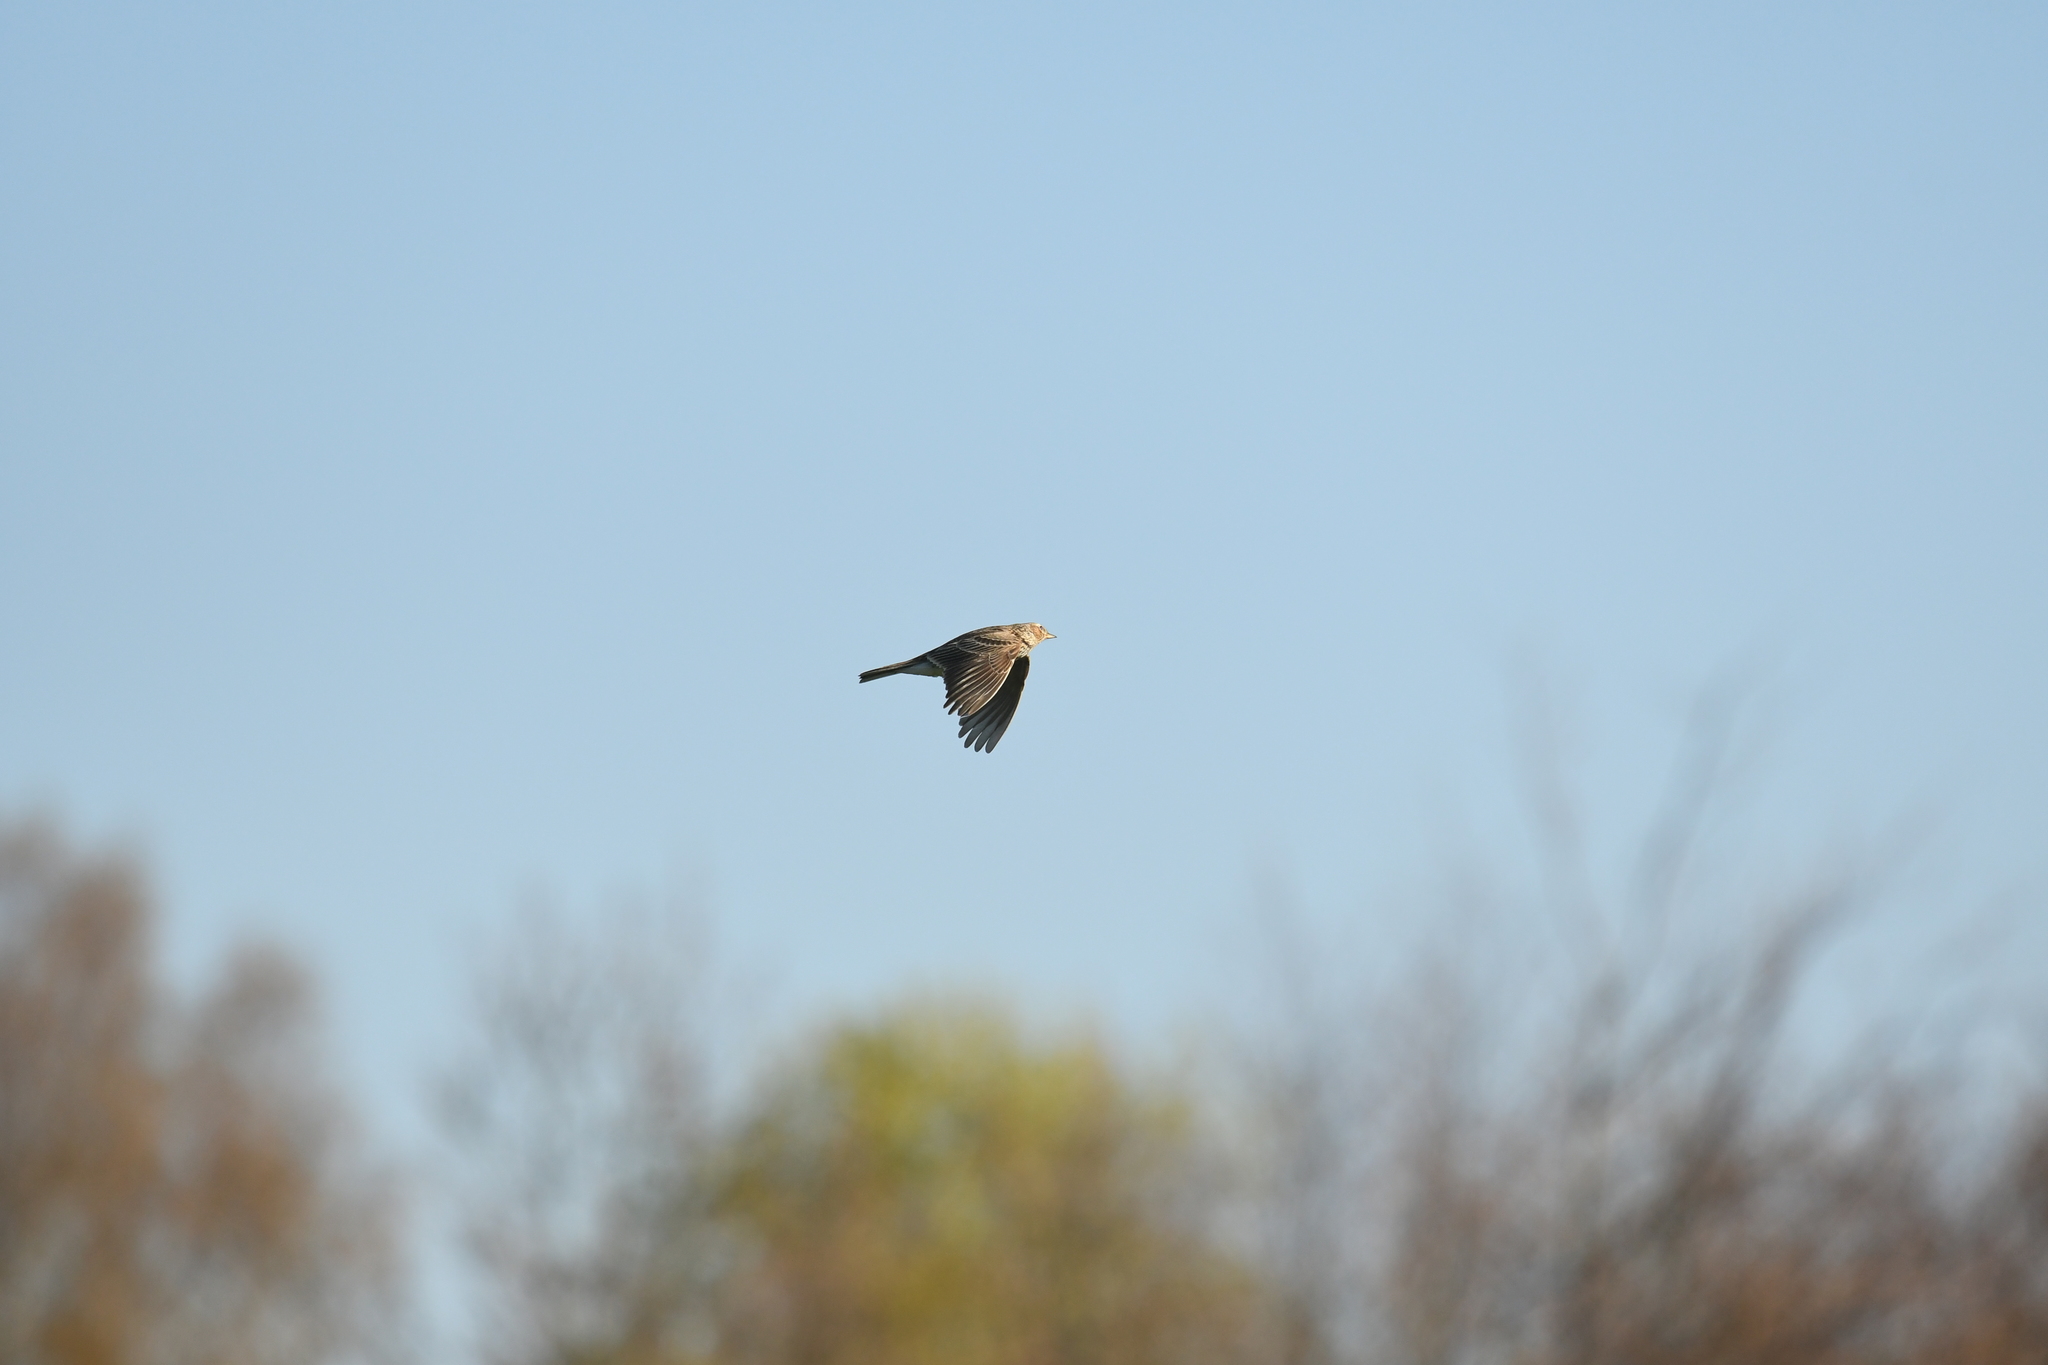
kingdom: Animalia
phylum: Chordata
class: Aves
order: Passeriformes
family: Alaudidae
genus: Alauda
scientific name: Alauda arvensis
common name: Eurasian skylark
